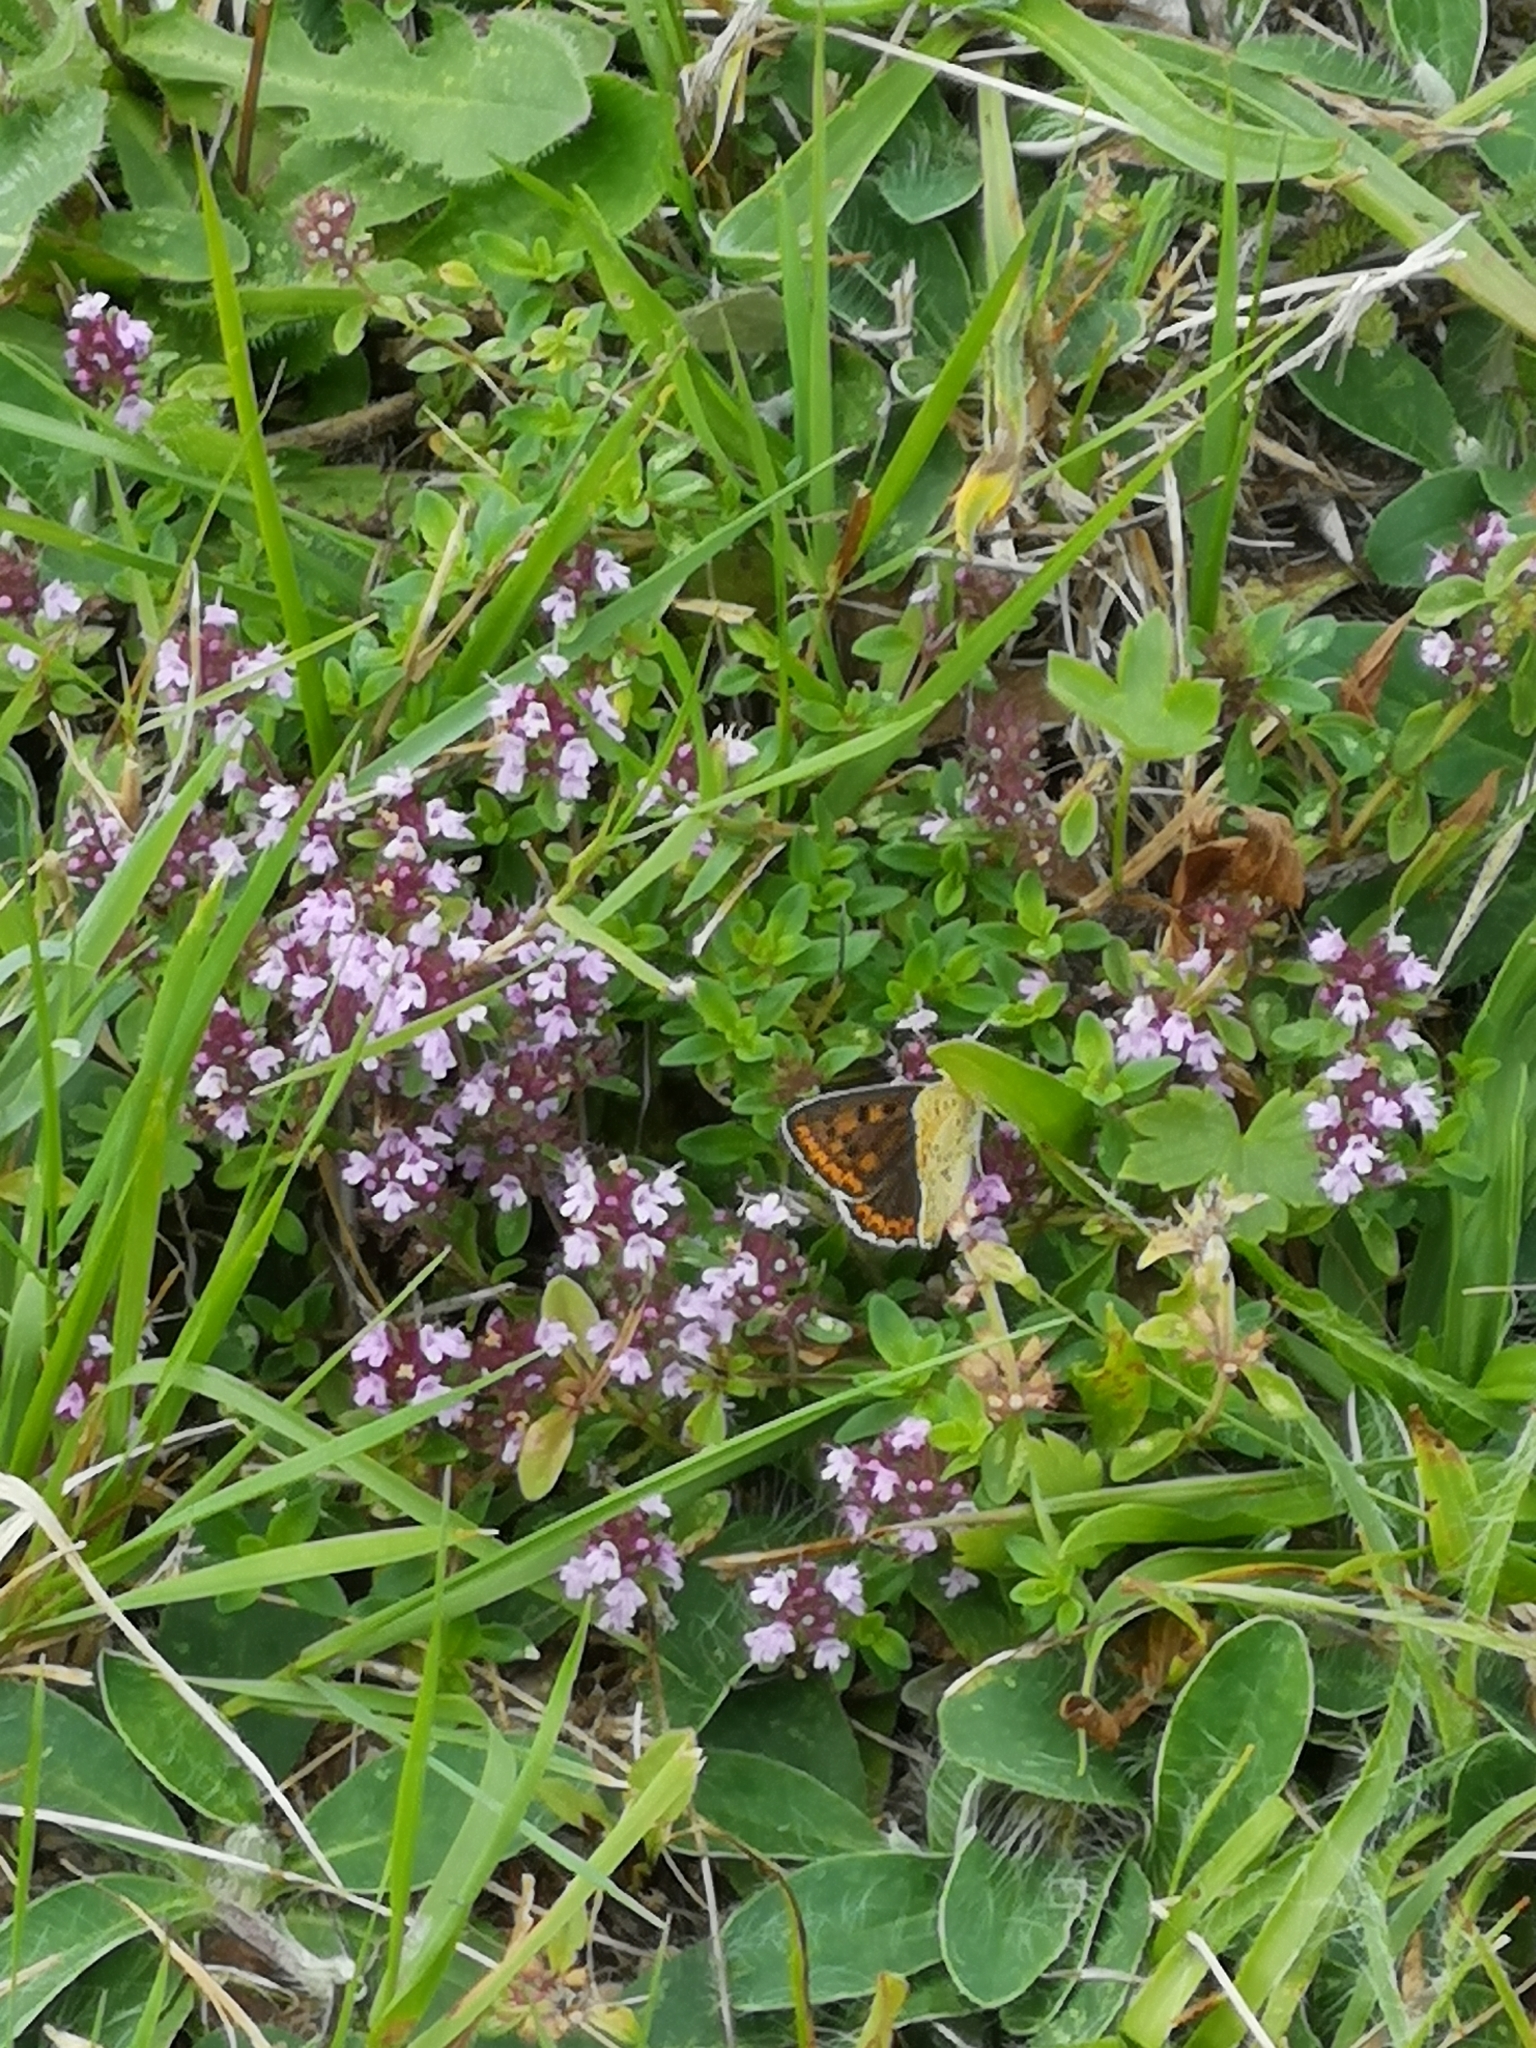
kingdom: Animalia
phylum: Arthropoda
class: Insecta
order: Lepidoptera
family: Lycaenidae
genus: Loweia
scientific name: Loweia tityrus
